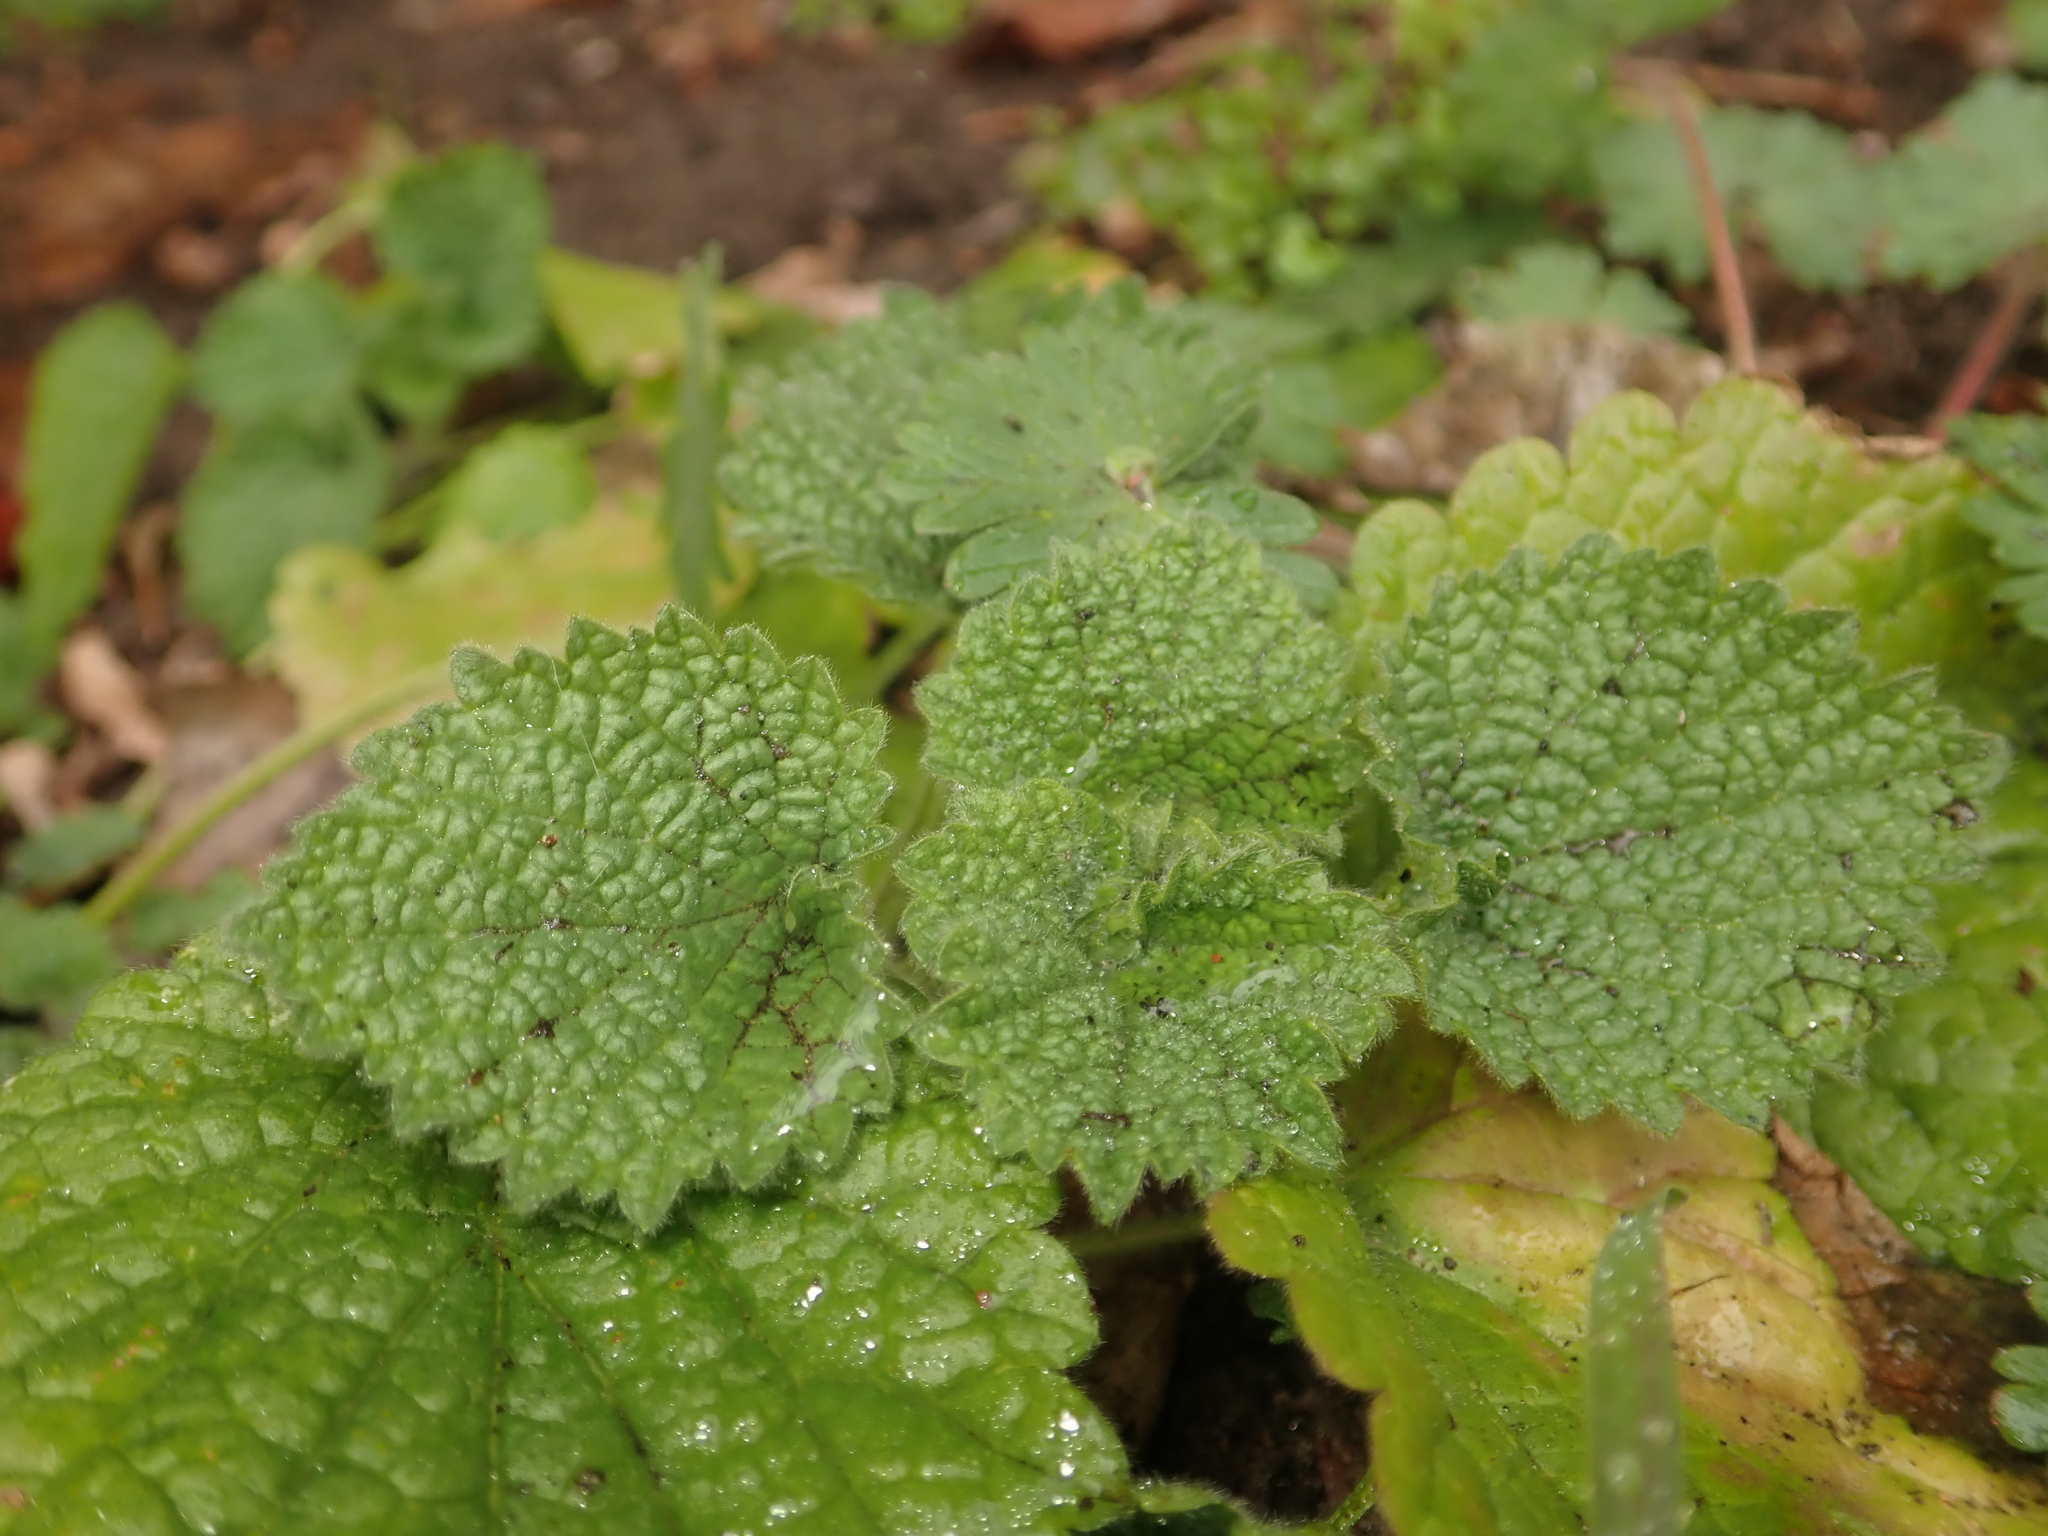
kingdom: Plantae
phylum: Tracheophyta
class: Magnoliopsida
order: Lamiales
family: Lamiaceae
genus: Ballota
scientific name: Ballota nigra
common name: Black horehound
